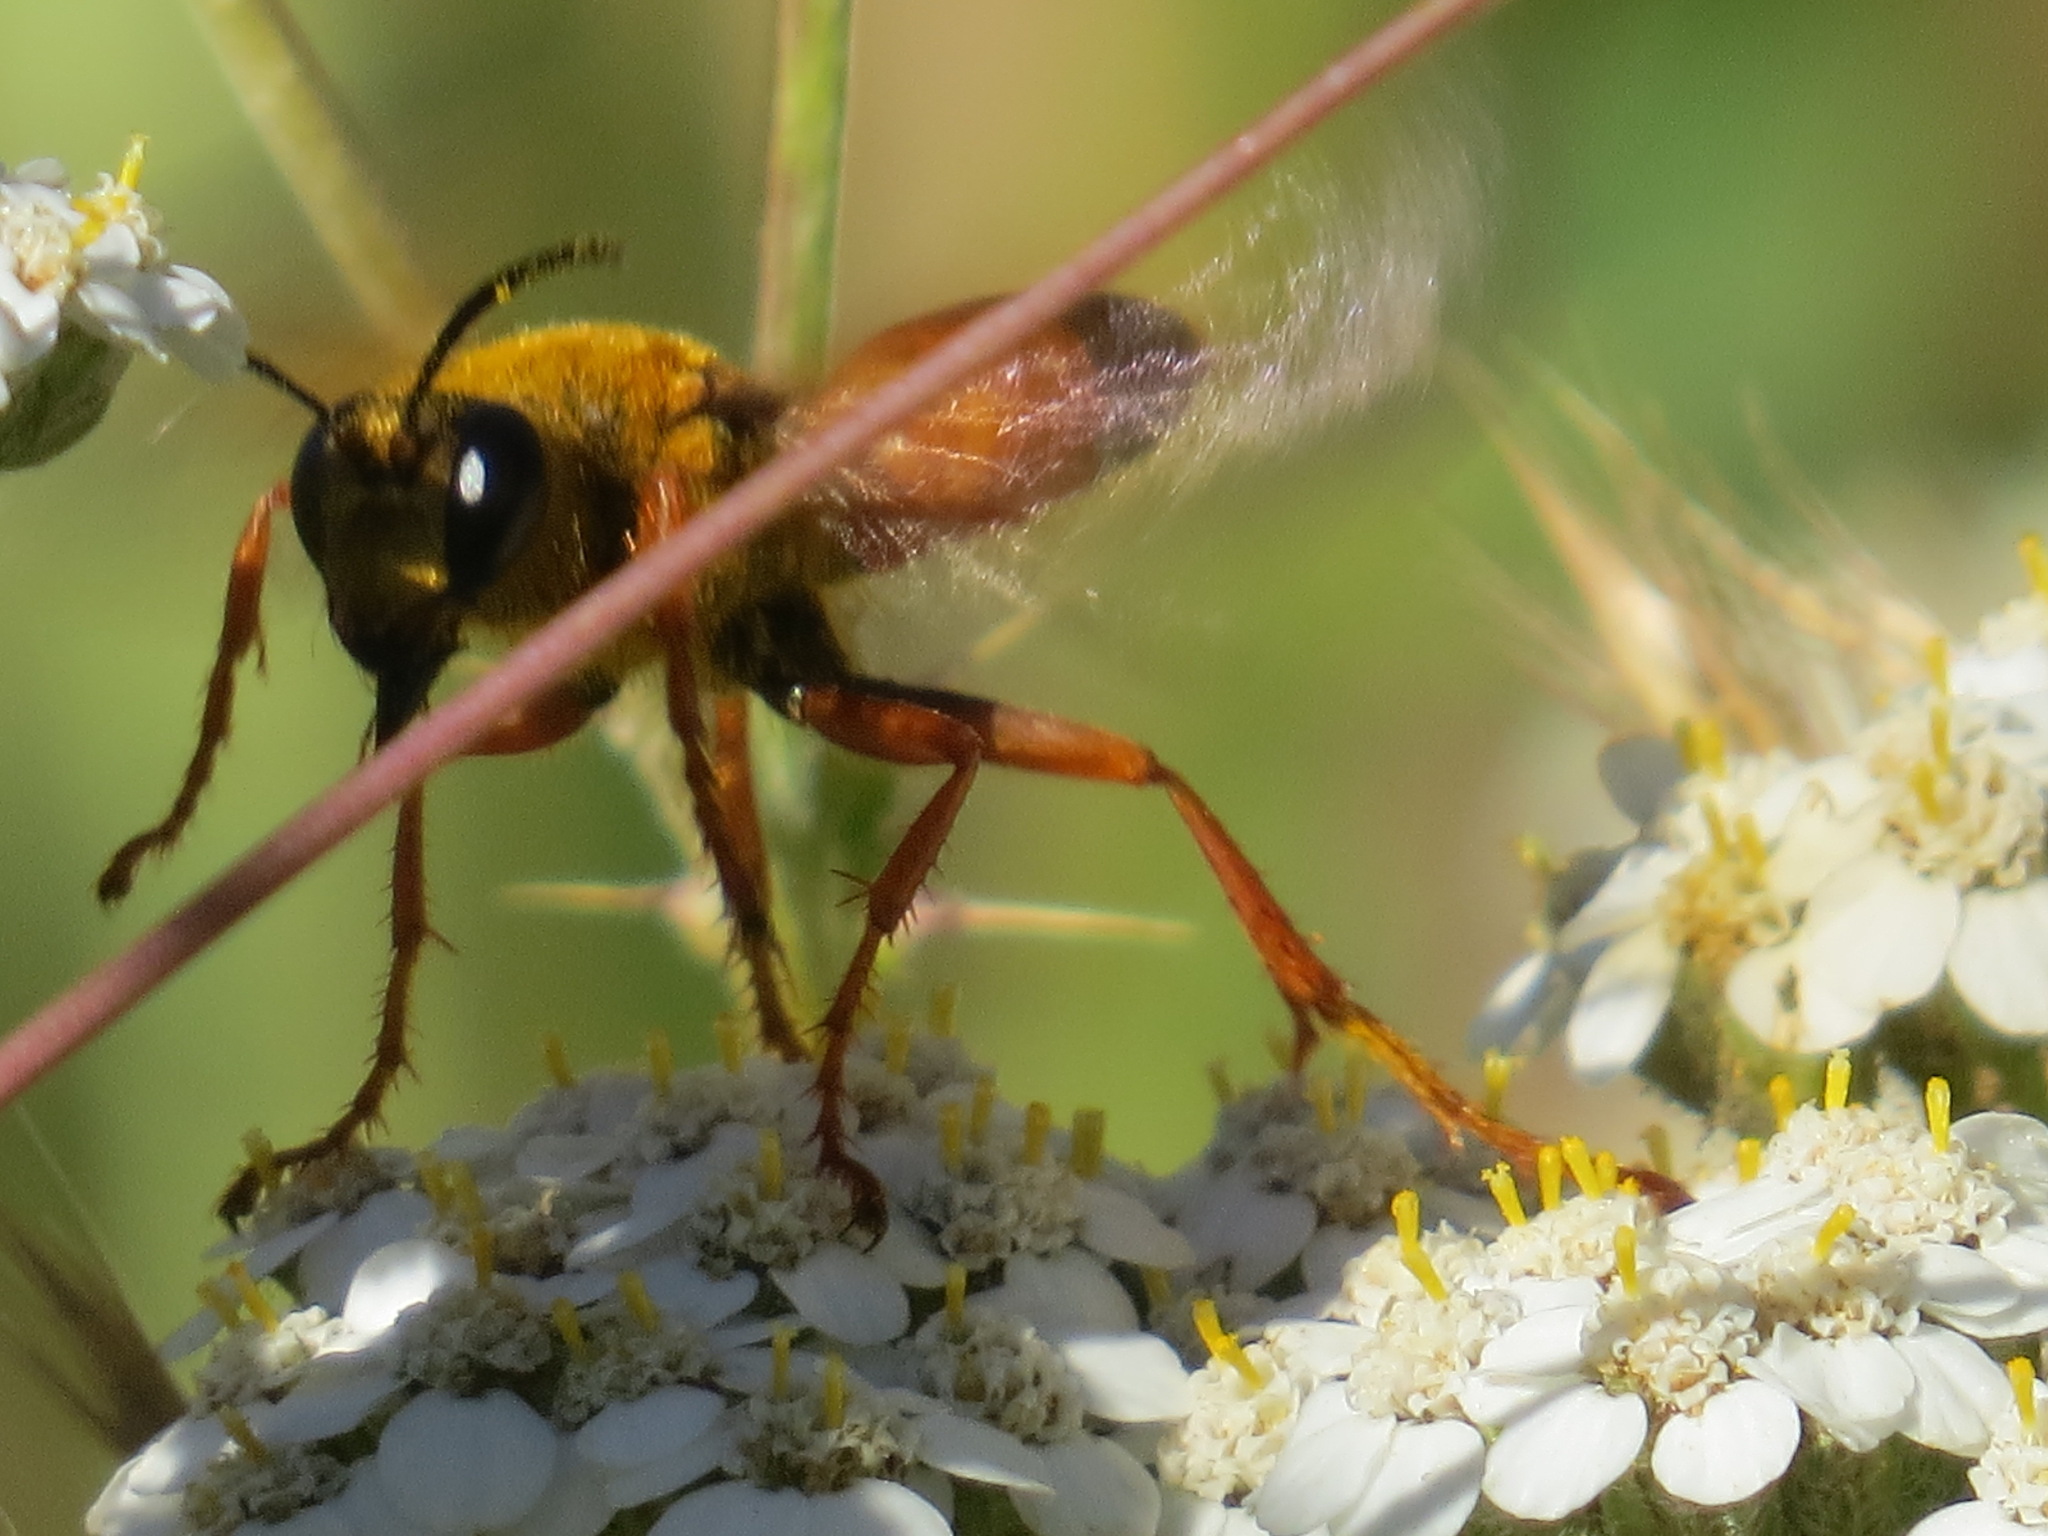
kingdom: Animalia
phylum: Arthropoda
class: Insecta
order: Hymenoptera
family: Sphecidae
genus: Sphex
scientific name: Sphex ichneumoneus
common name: Great golden digger wasp
